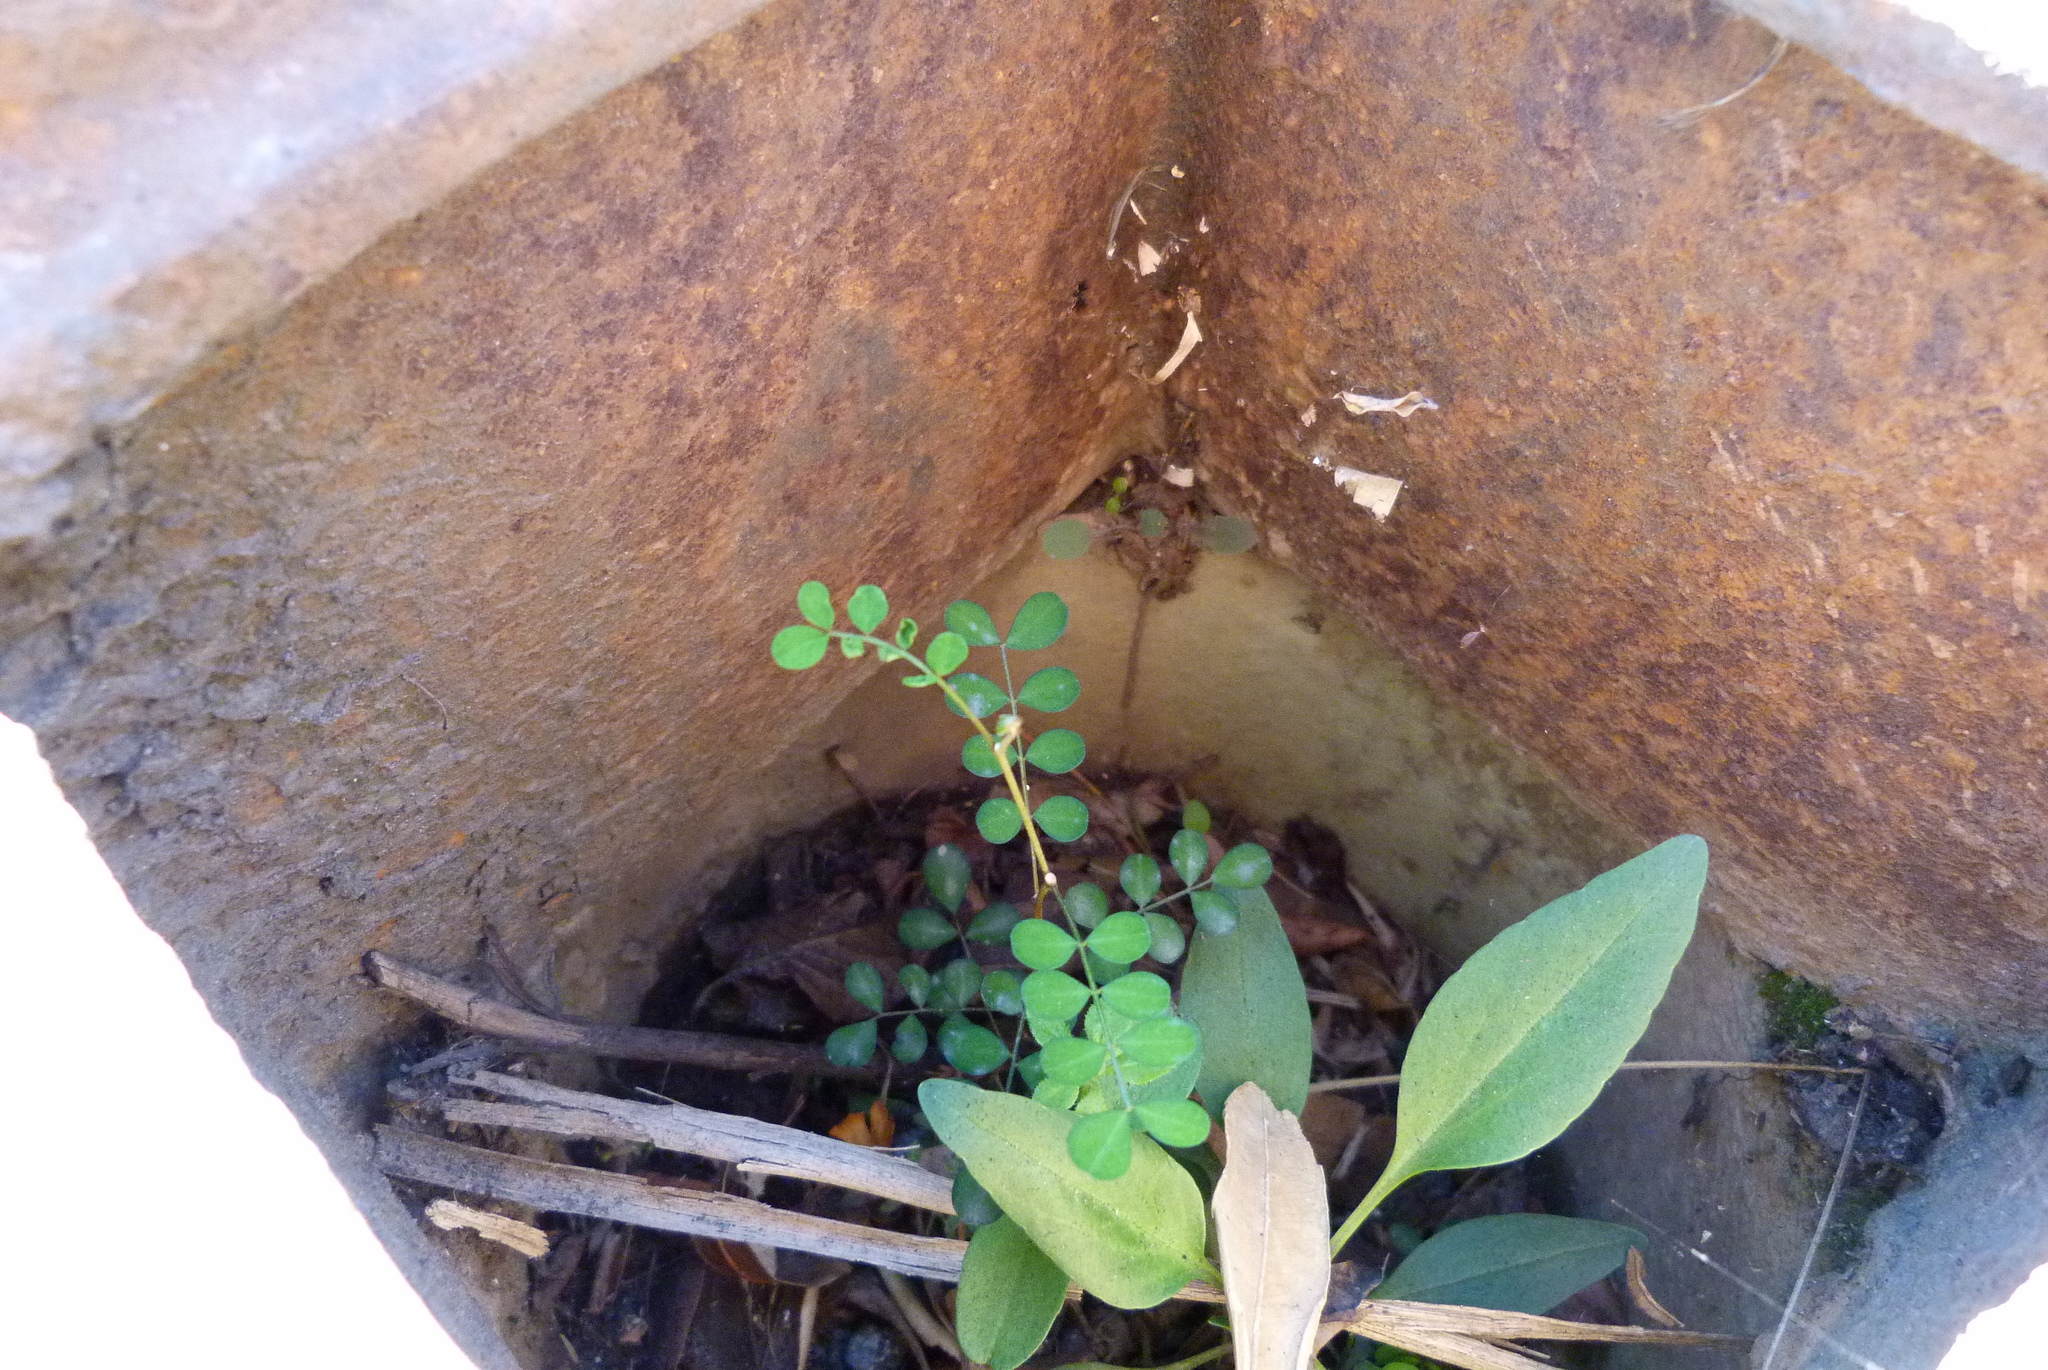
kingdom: Plantae
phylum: Tracheophyta
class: Magnoliopsida
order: Fabales
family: Fabaceae
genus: Sophora
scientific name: Sophora microphylla
